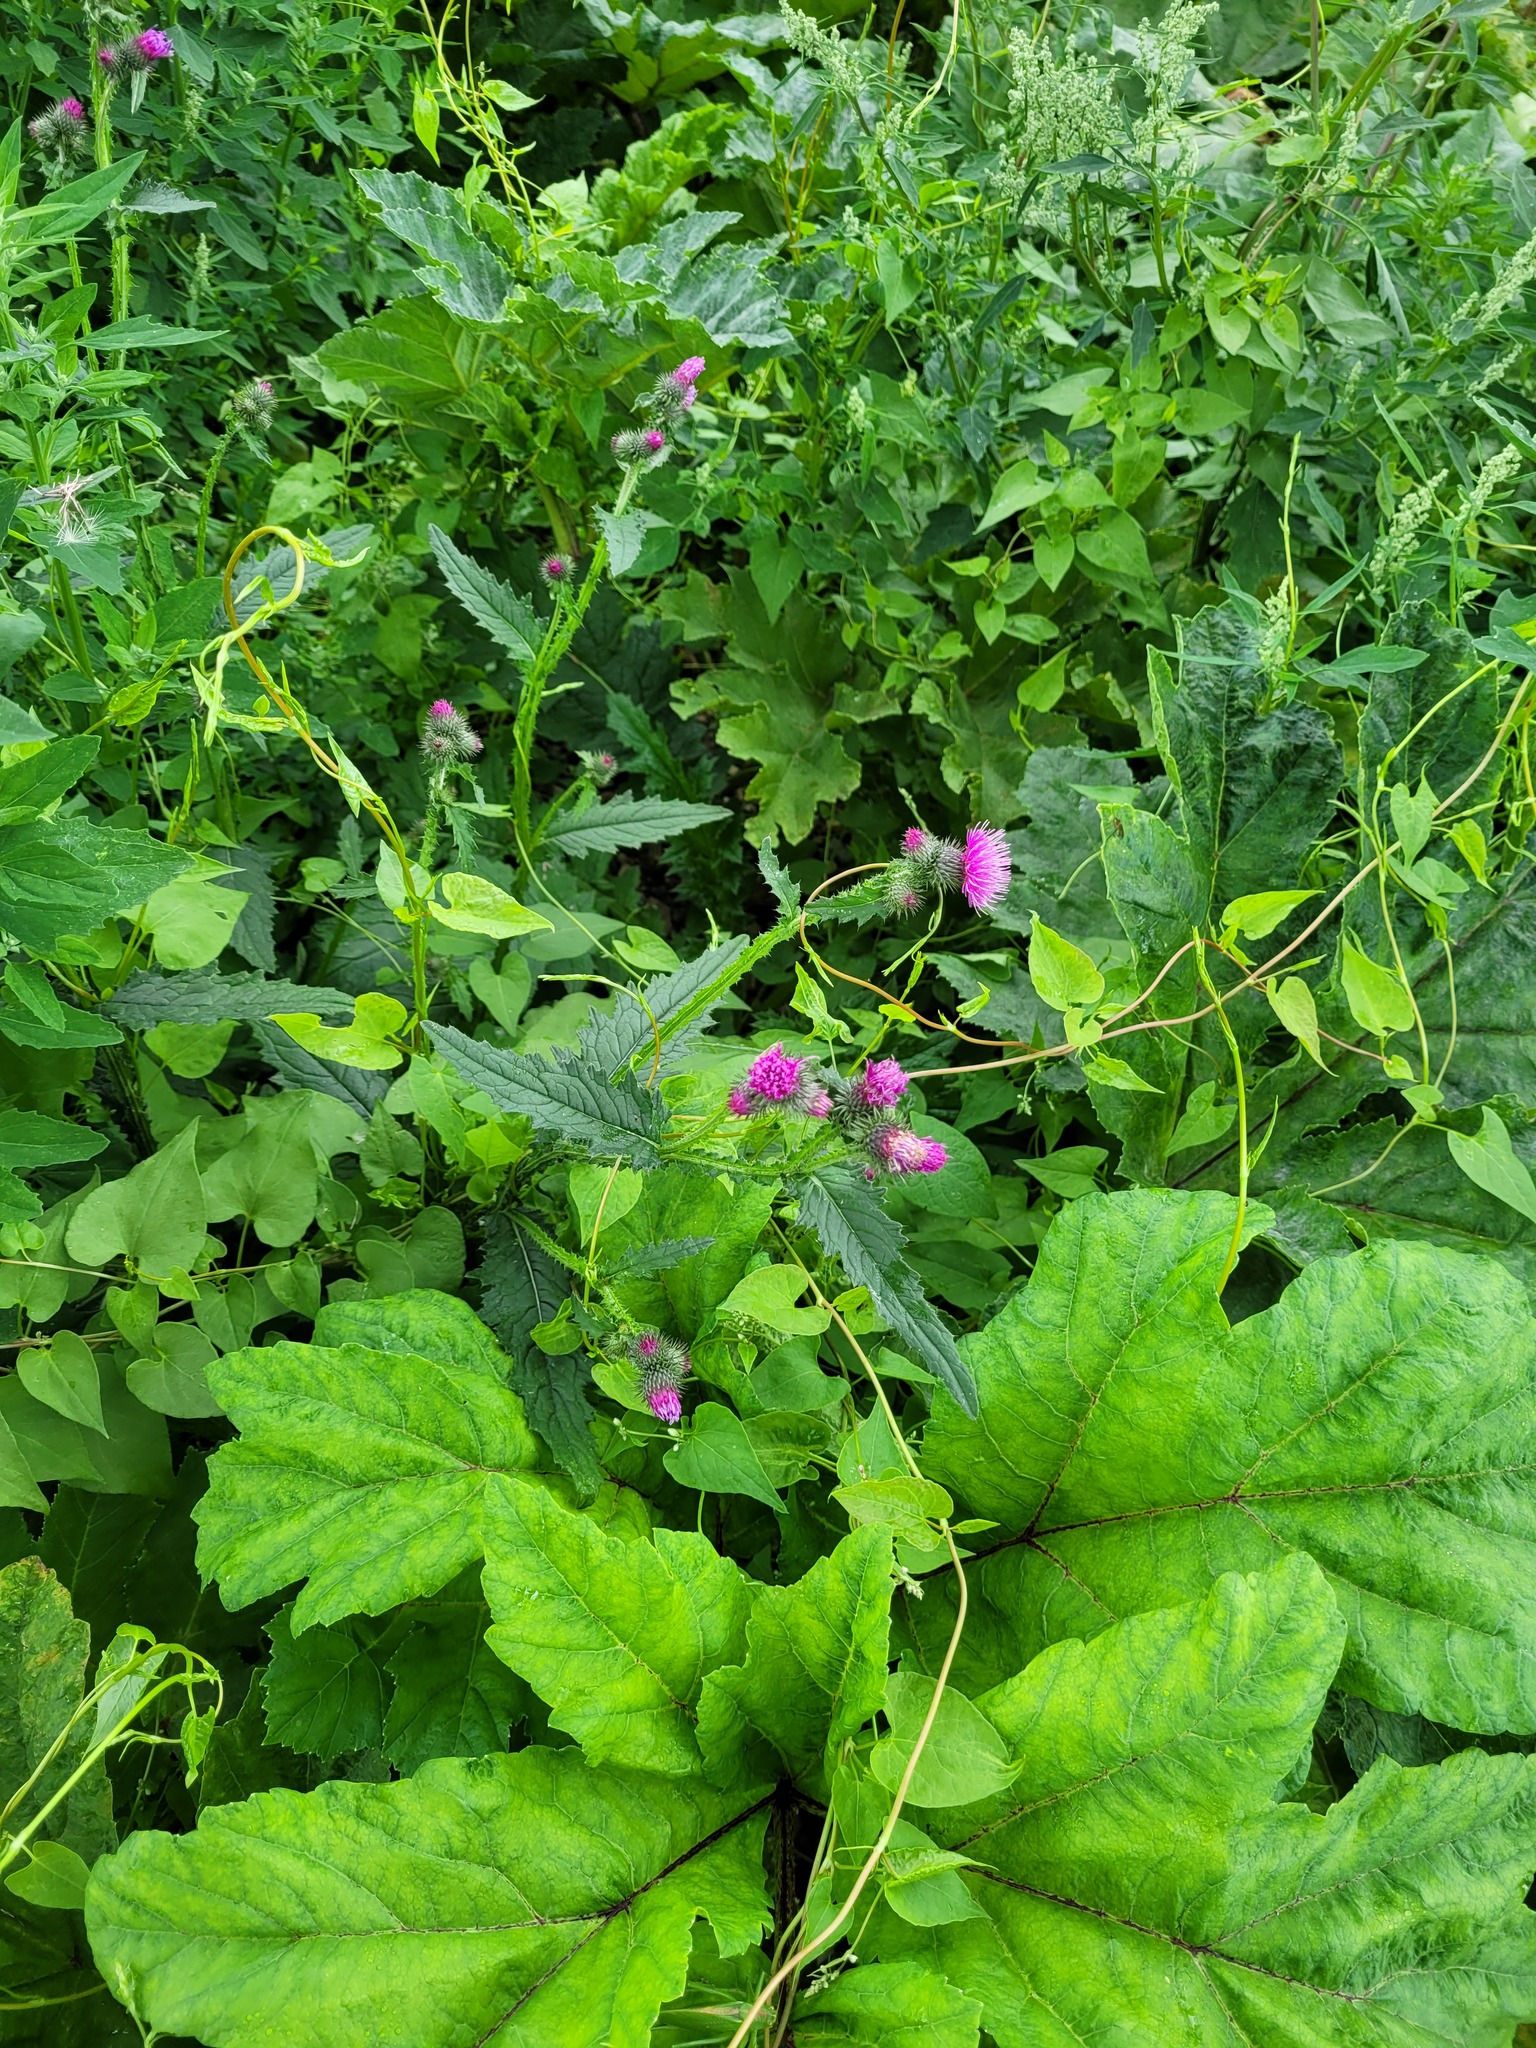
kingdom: Plantae
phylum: Tracheophyta
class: Magnoliopsida
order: Asterales
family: Asteraceae
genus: Carduus
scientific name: Carduus crispus
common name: Welted thistle
